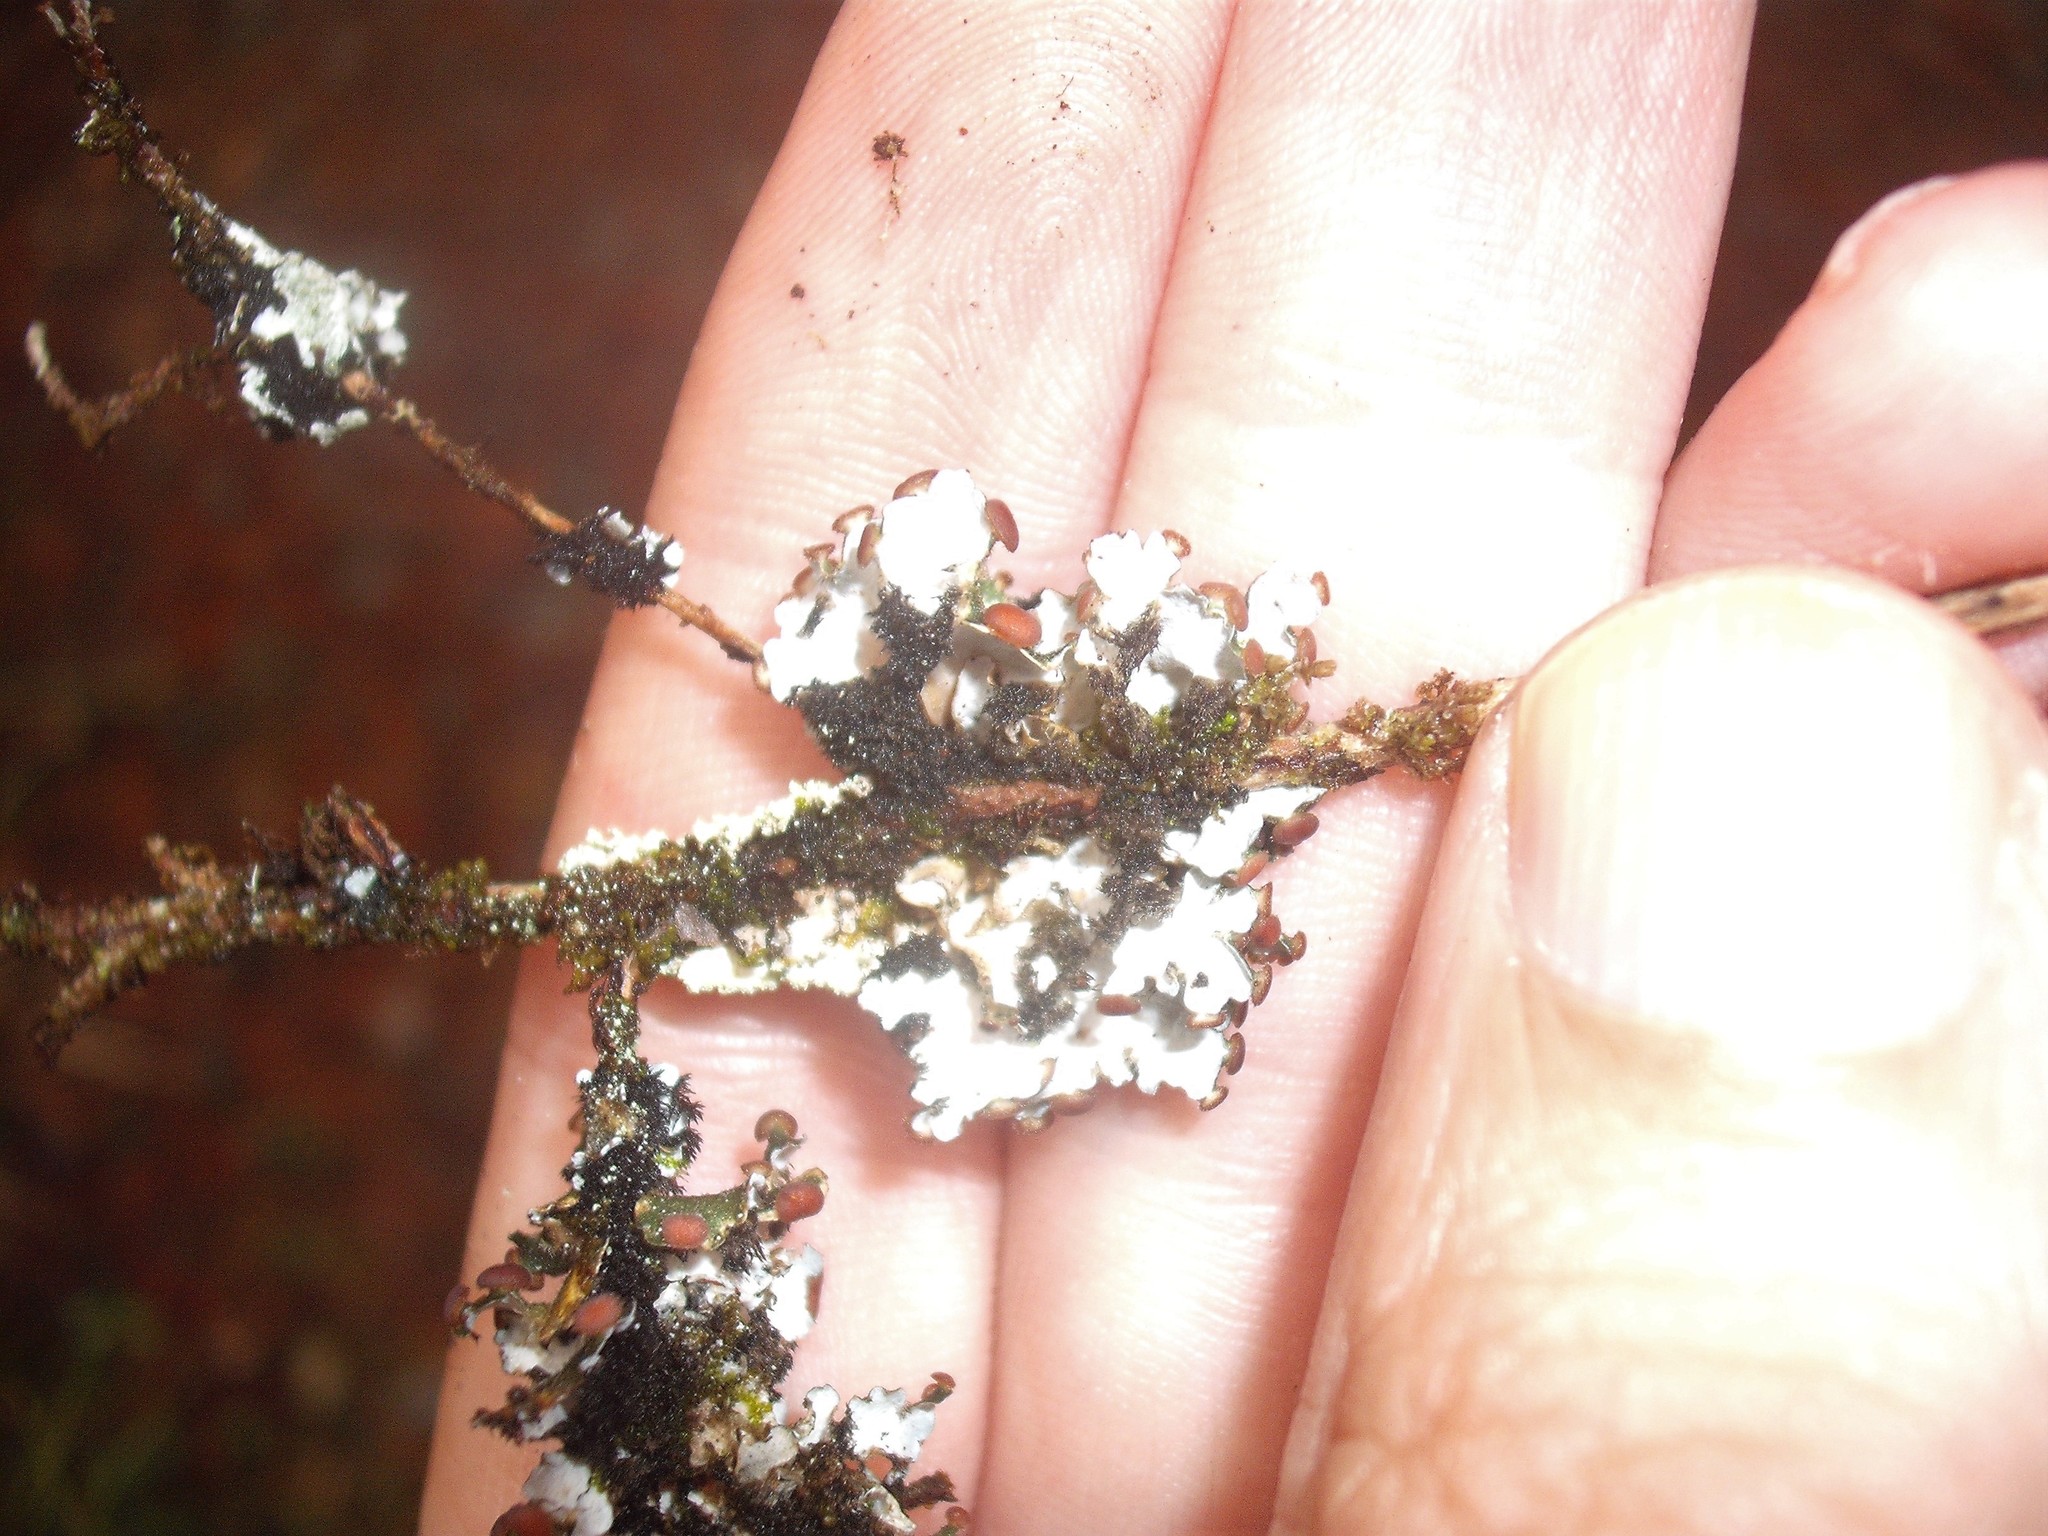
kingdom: Fungi
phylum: Ascomycota
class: Lecanoromycetes
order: Peltigerales
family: Pannariaceae
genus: Erioderma
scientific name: Erioderma leylandii
